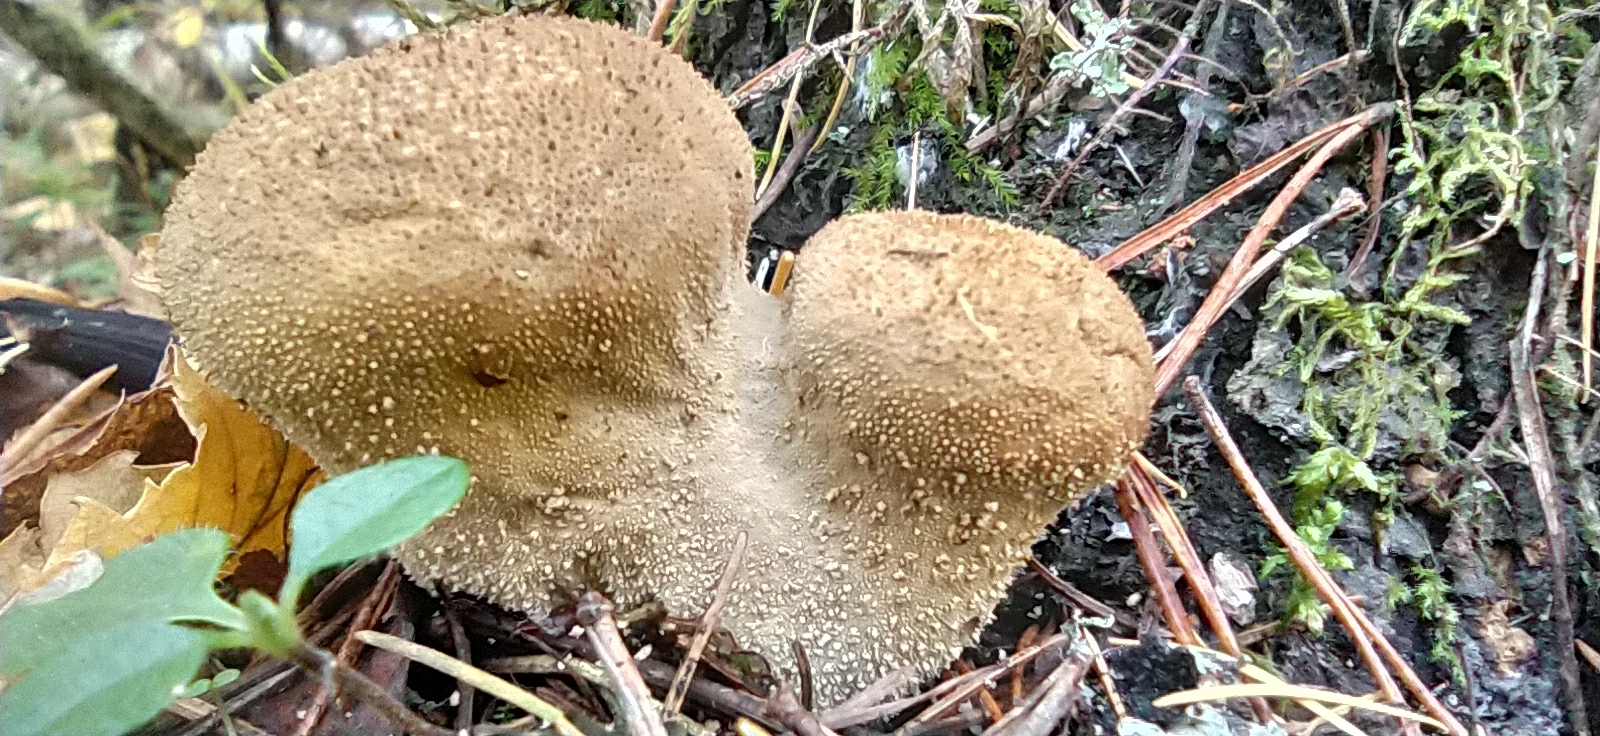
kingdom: Fungi
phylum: Basidiomycota
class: Agaricomycetes
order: Agaricales
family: Lycoperdaceae
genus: Lycoperdon
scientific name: Lycoperdon perlatum
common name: Common puffball
